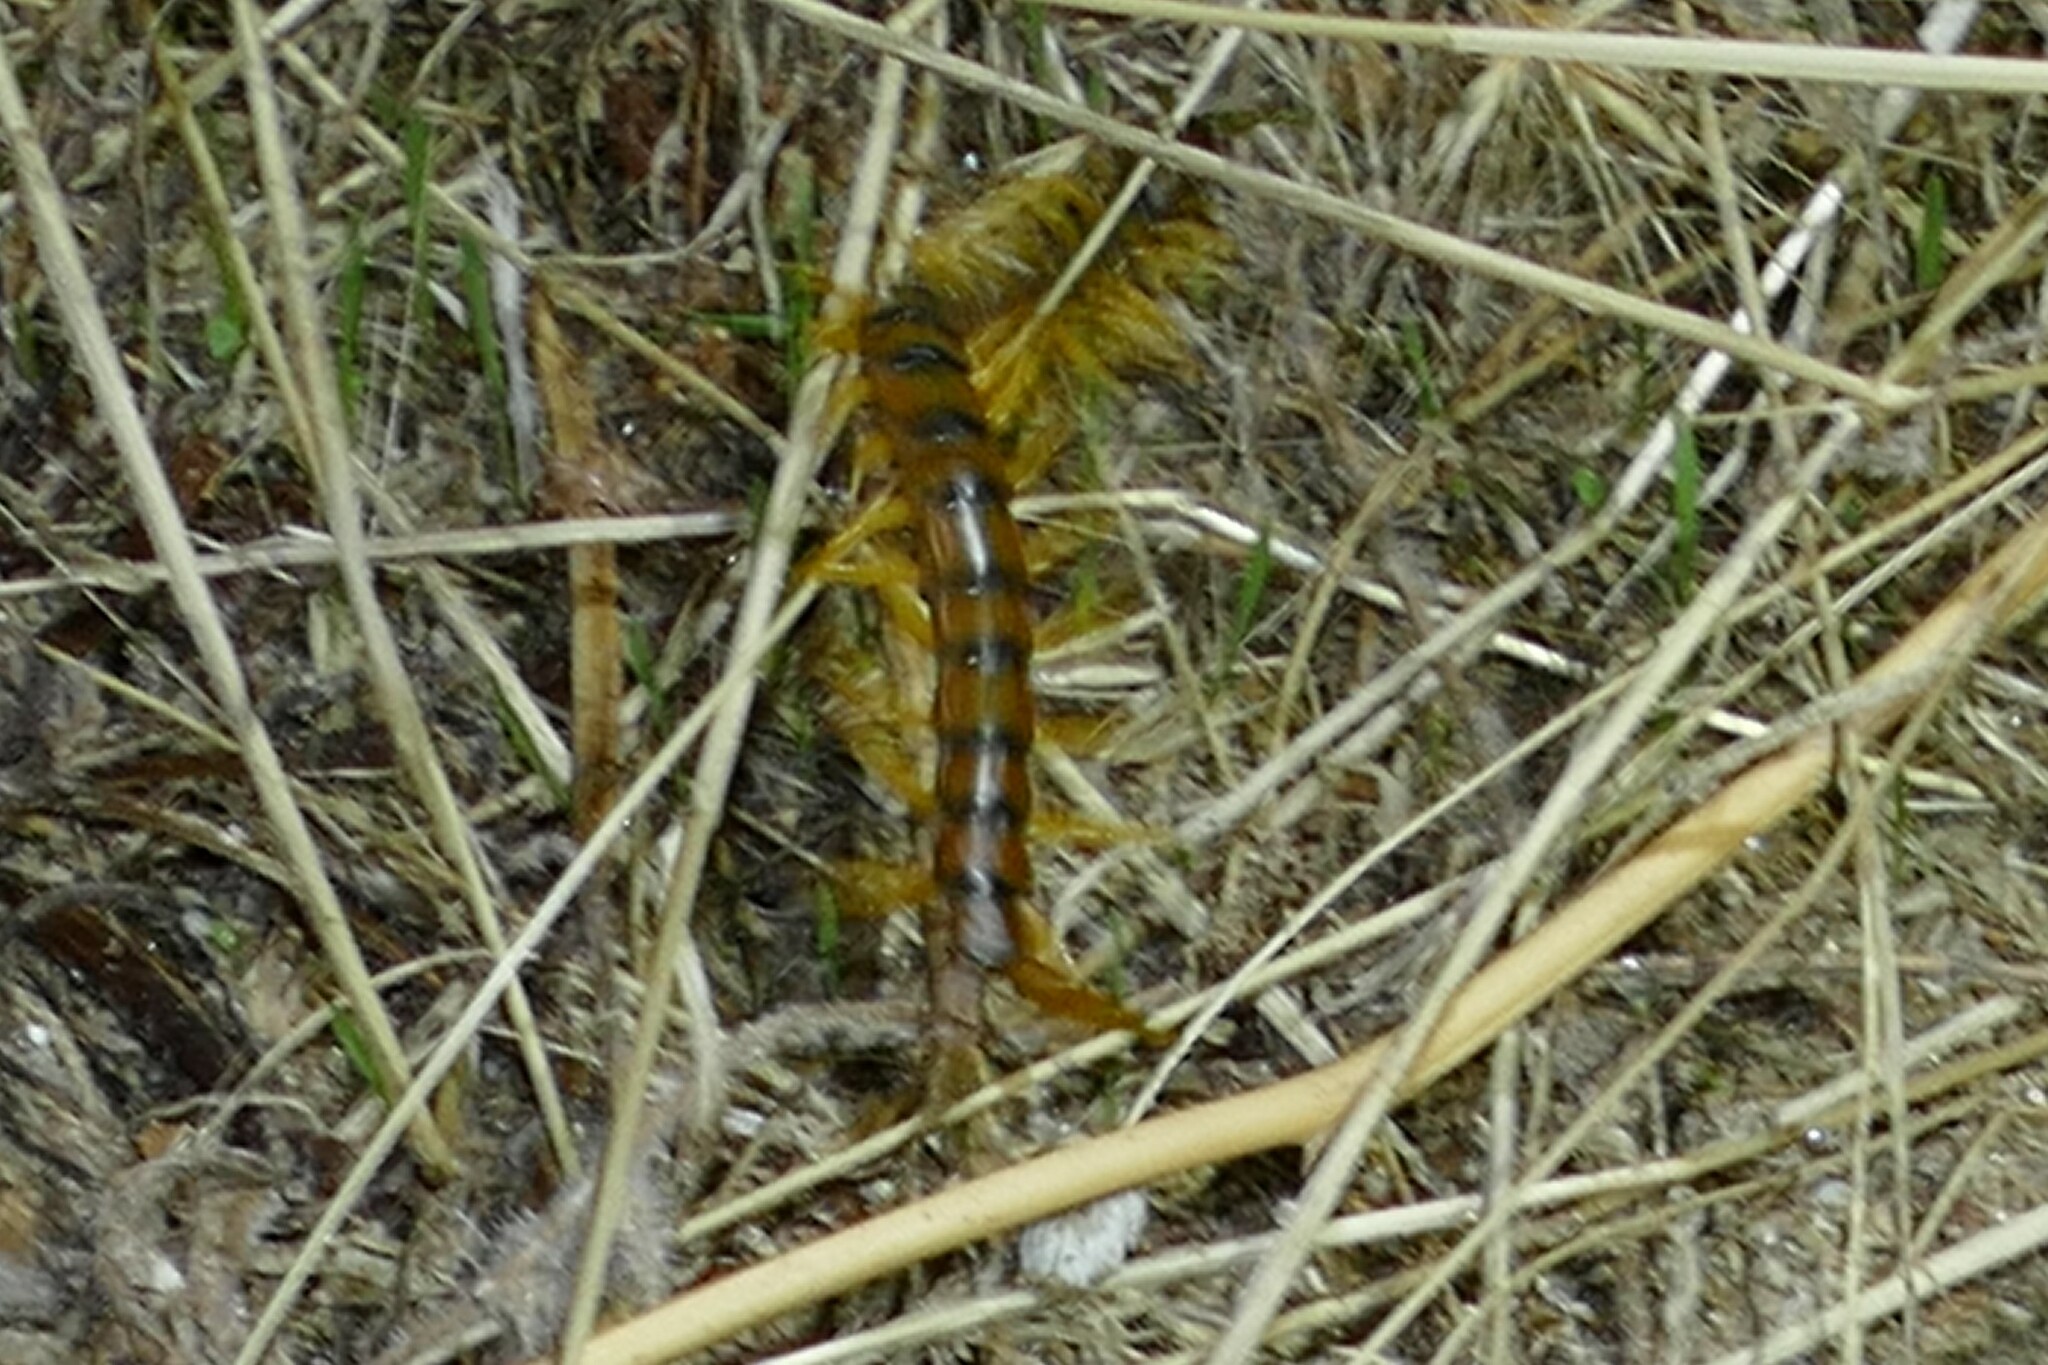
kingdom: Animalia
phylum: Arthropoda
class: Chilopoda
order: Scolopendromorpha
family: Scolopendridae
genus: Scolopendra
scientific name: Scolopendra cingulata
